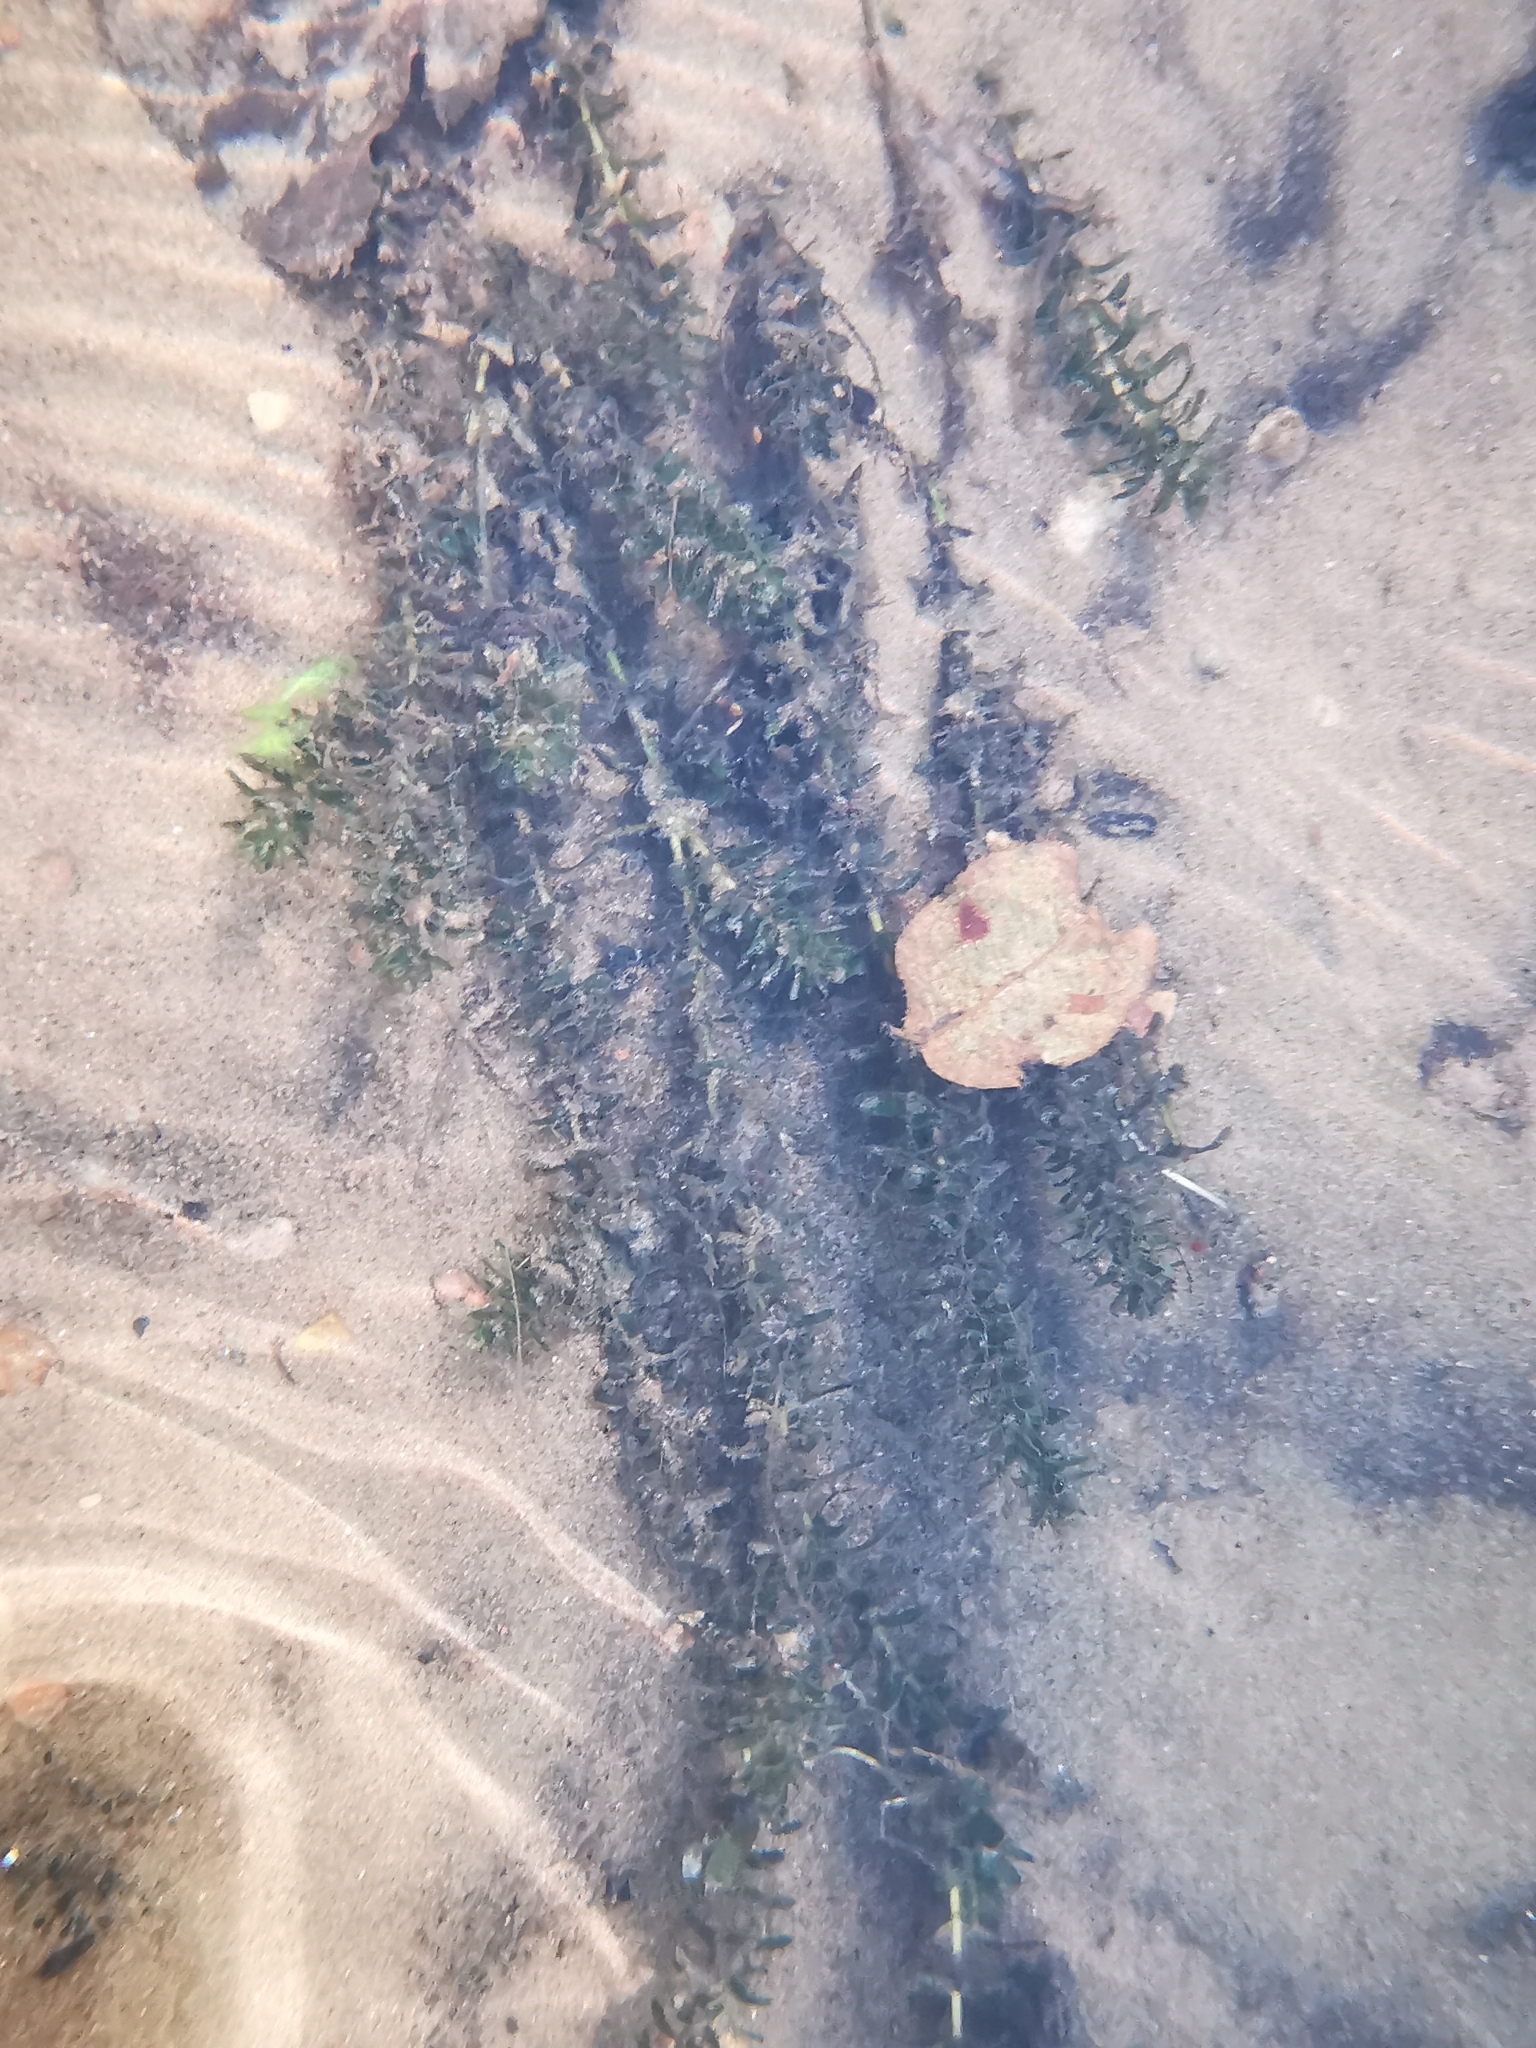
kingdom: Plantae
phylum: Tracheophyta
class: Liliopsida
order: Alismatales
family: Hydrocharitaceae
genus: Elodea
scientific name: Elodea canadensis
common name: Canadian waterweed
